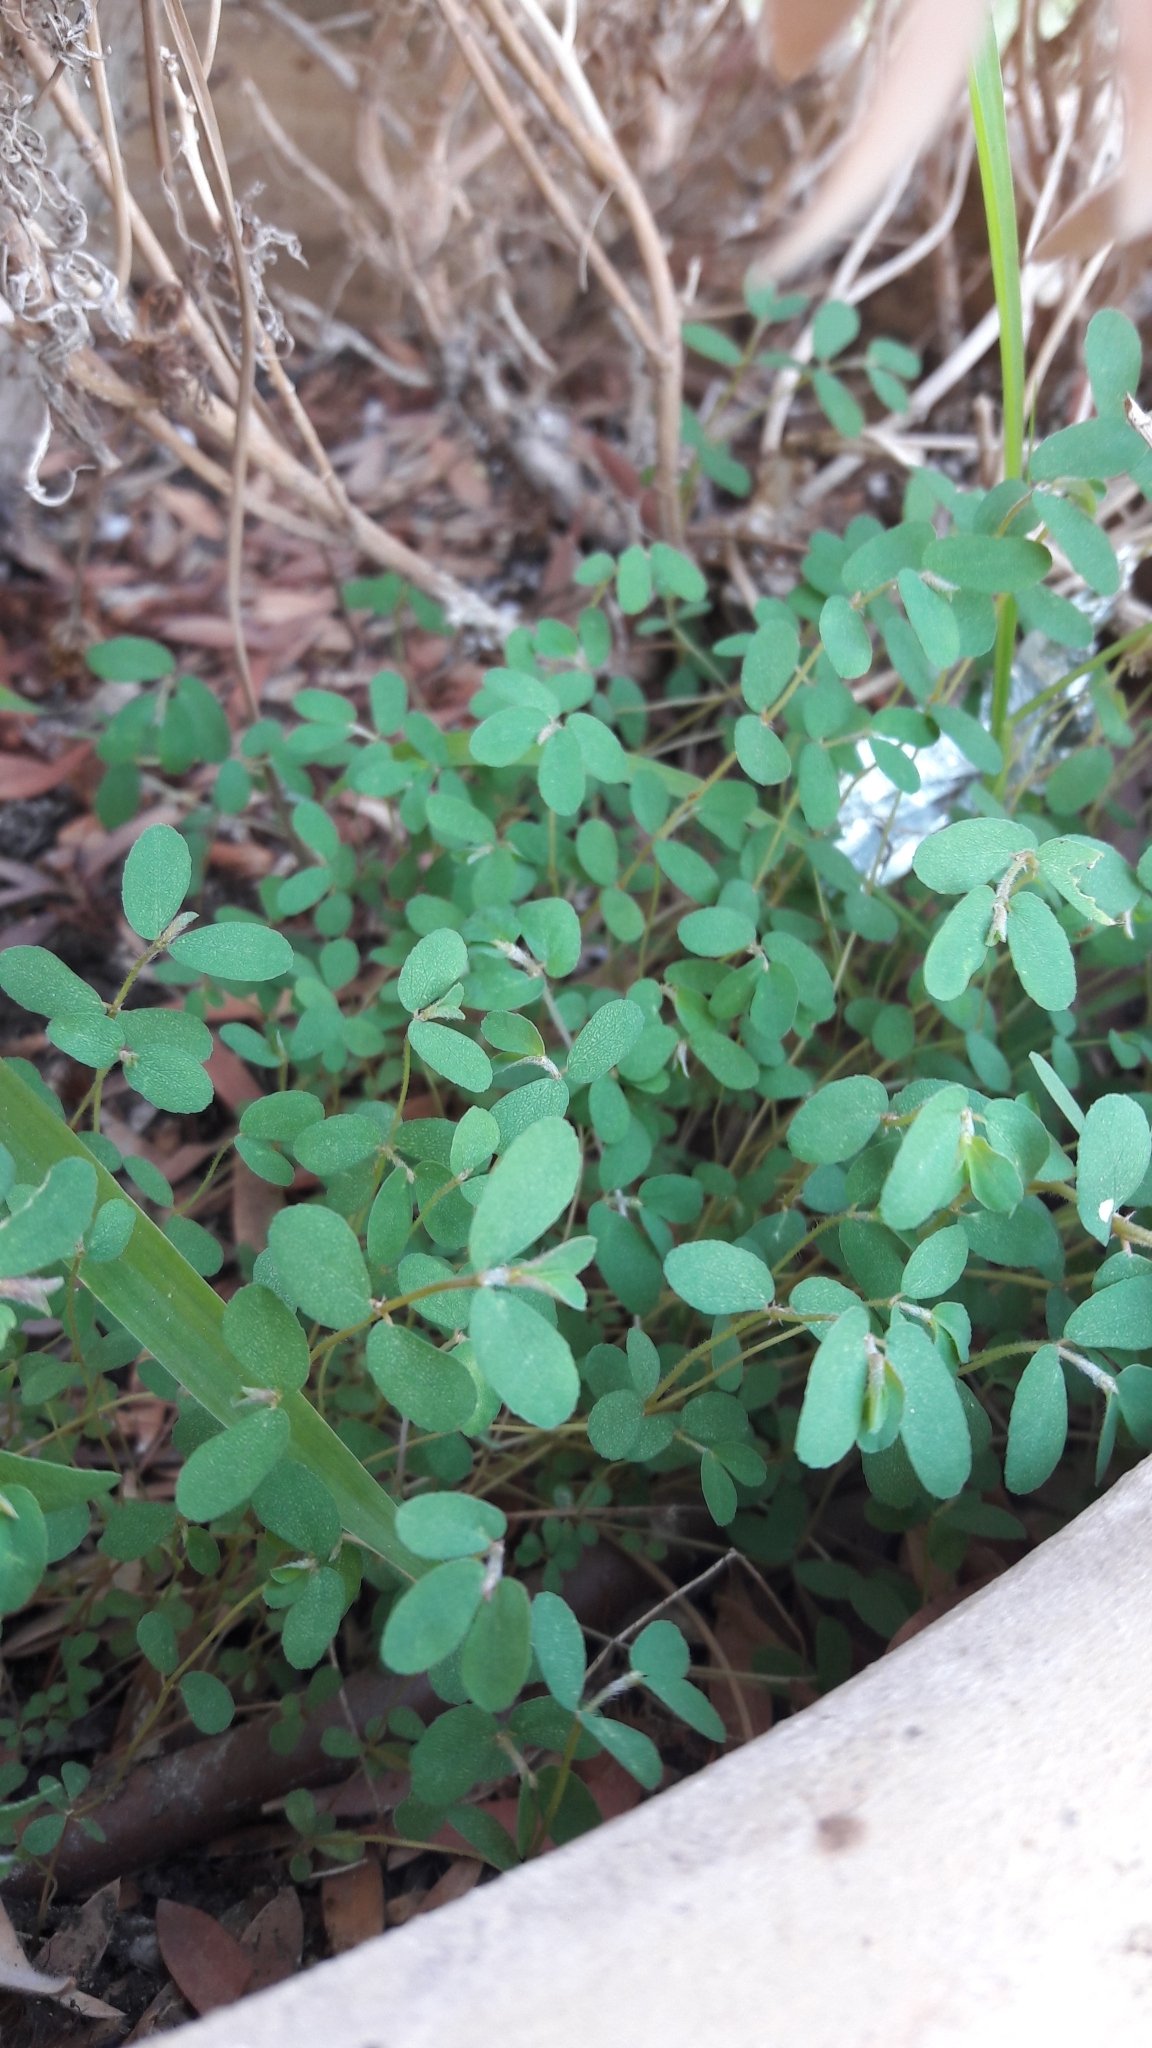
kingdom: Plantae
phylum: Tracheophyta
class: Magnoliopsida
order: Malpighiales
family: Euphorbiaceae
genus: Euphorbia
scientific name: Euphorbia maculata
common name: Spotted spurge
